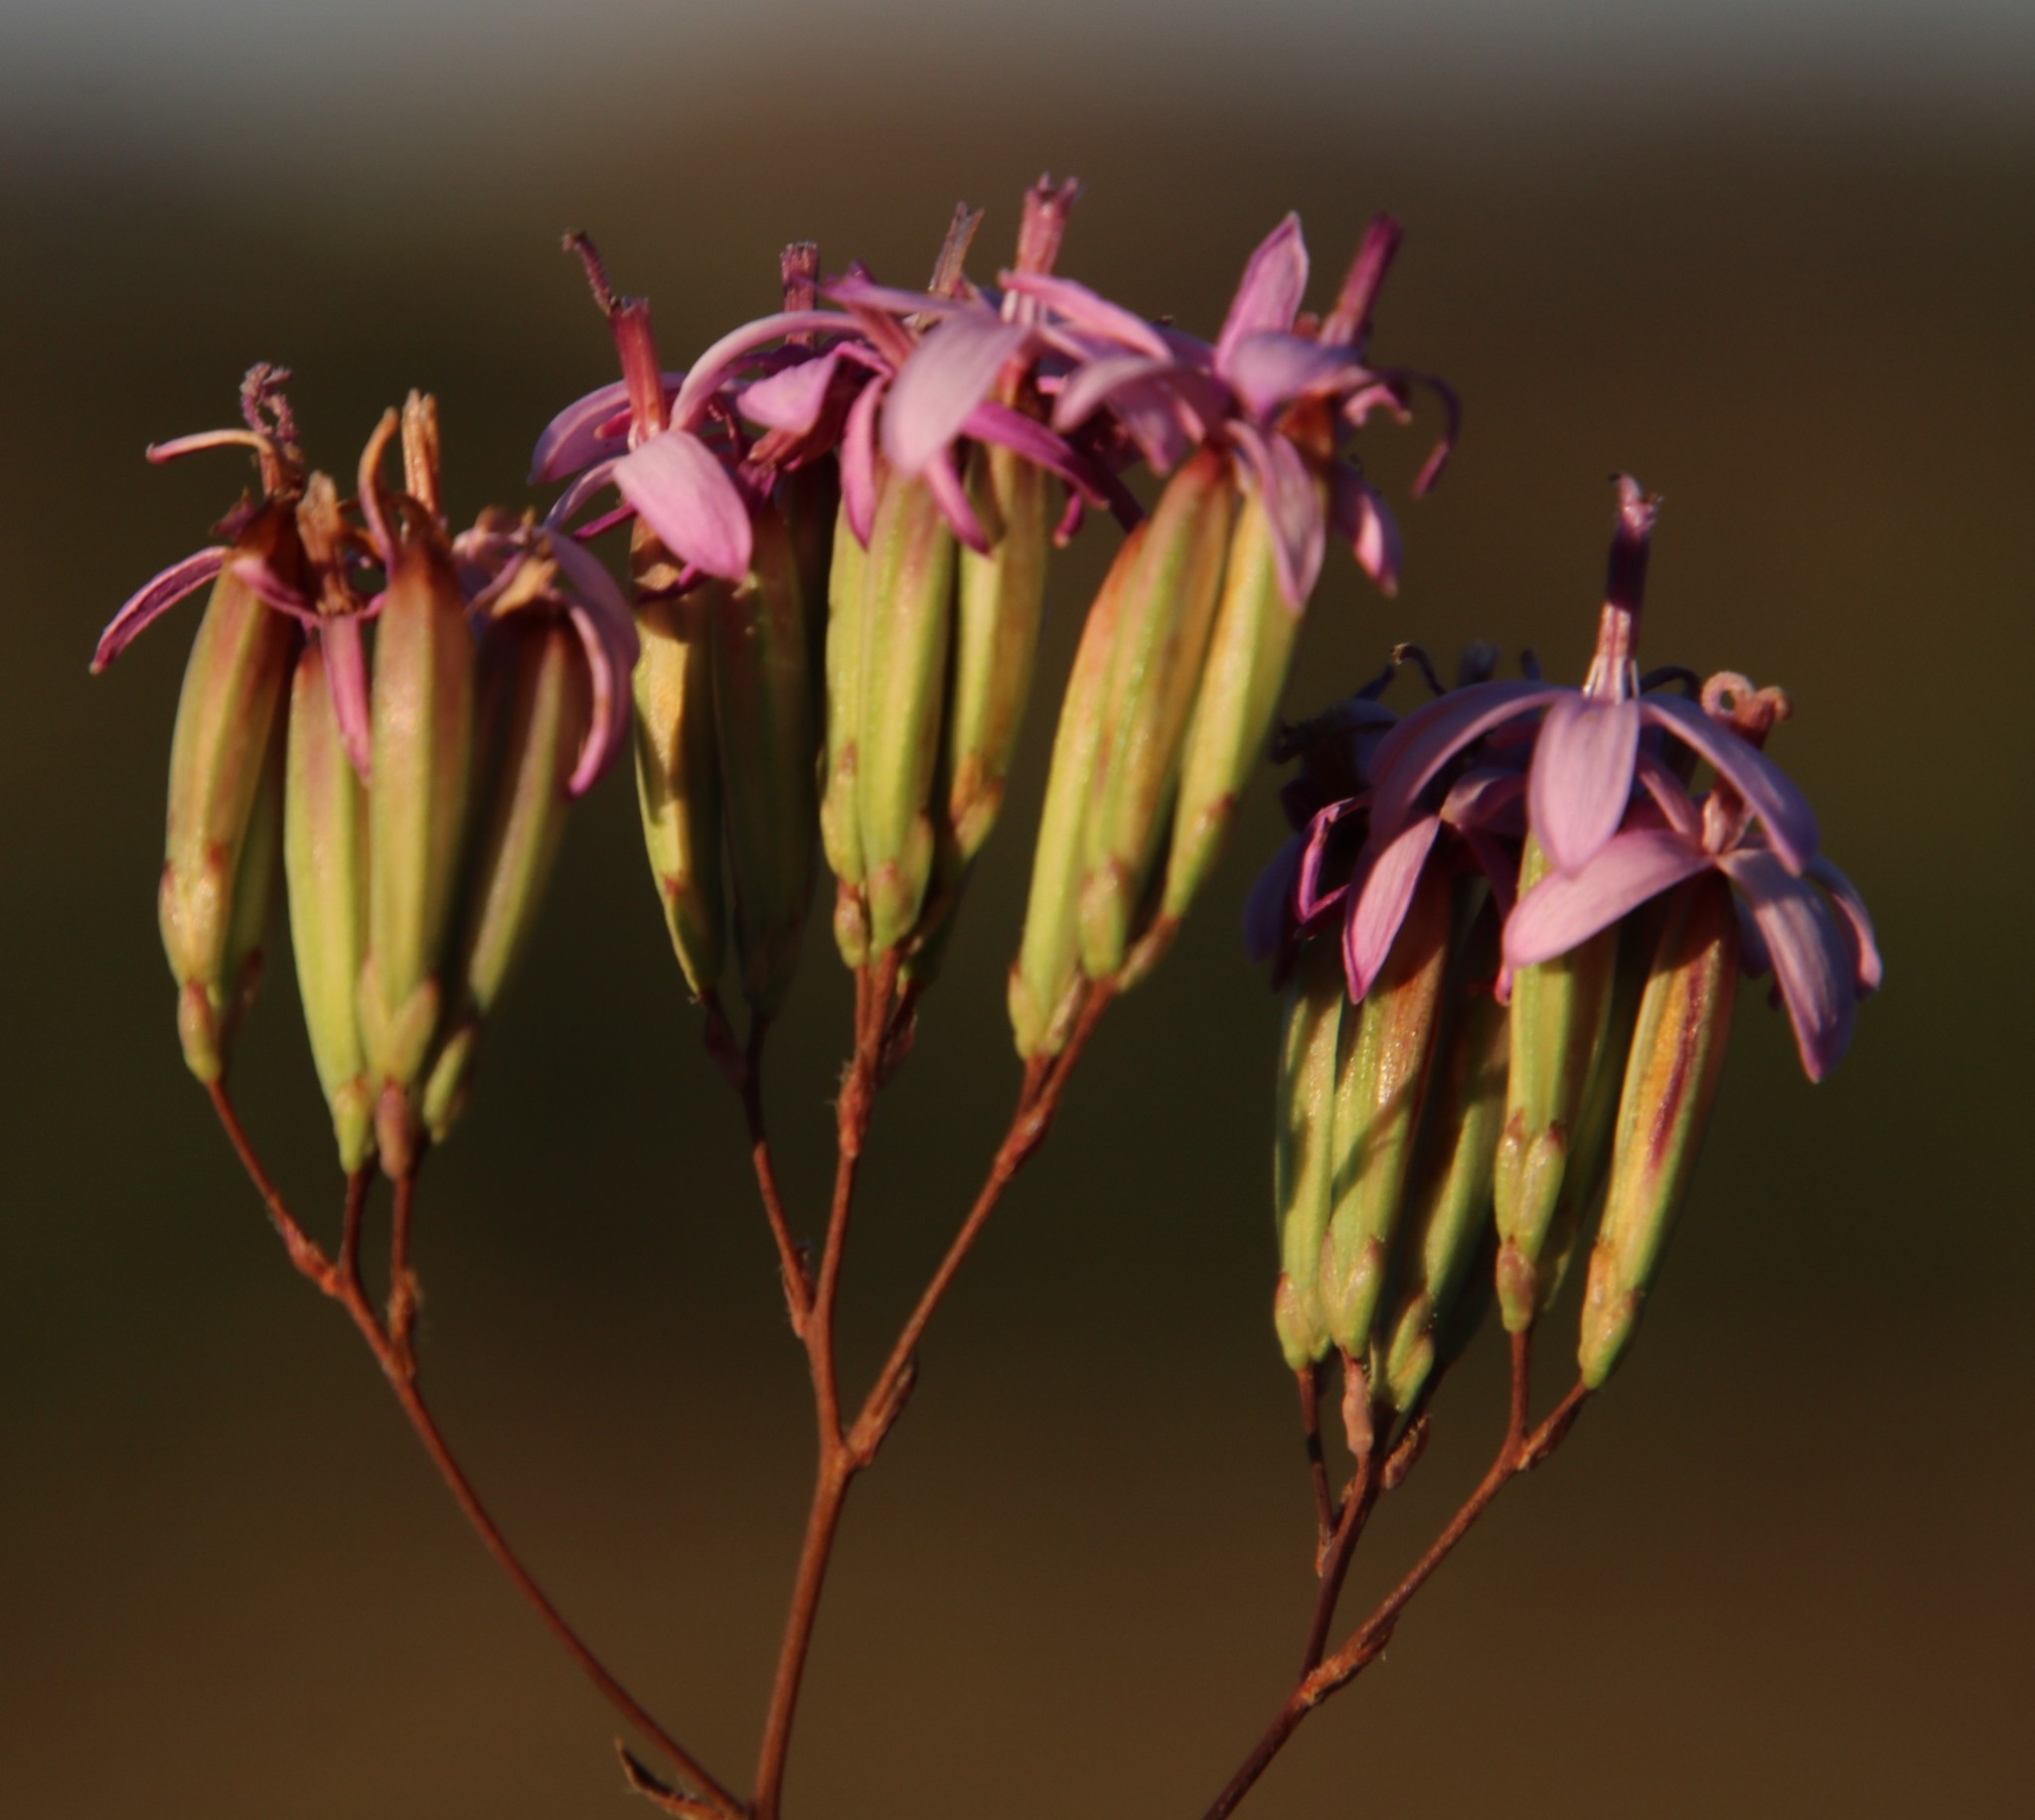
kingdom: Plantae
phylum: Tracheophyta
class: Magnoliopsida
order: Asterales
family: Asteraceae
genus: Corymbium
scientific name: Corymbium africanum
